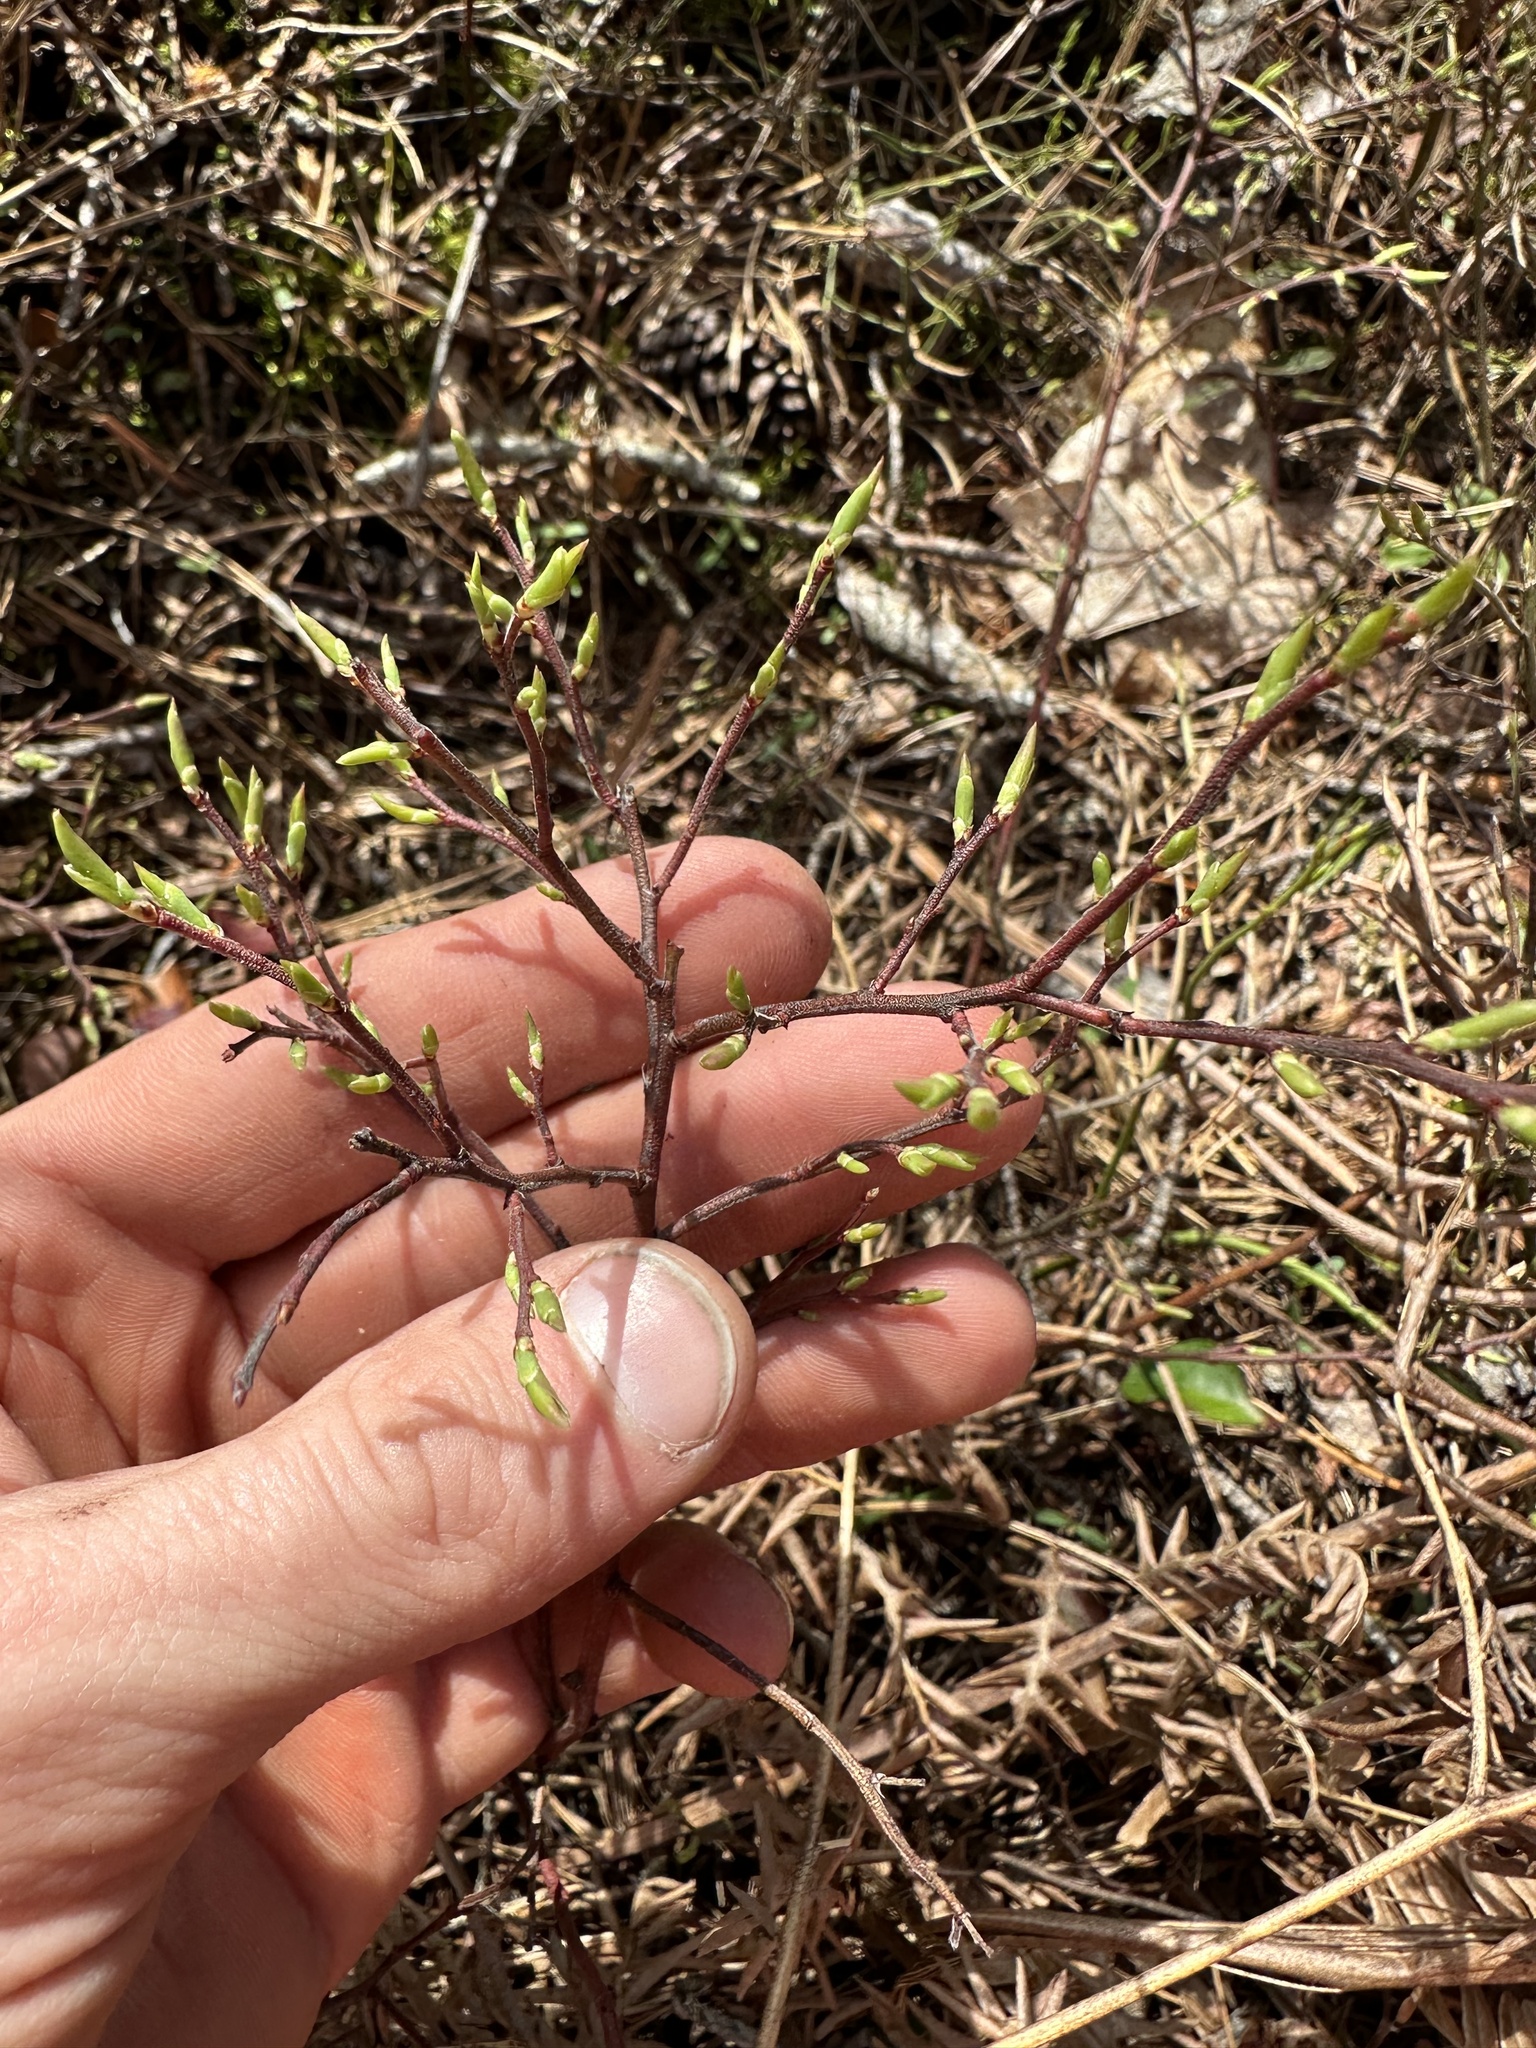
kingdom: Plantae
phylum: Tracheophyta
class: Magnoliopsida
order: Ericales
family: Ericaceae
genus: Vaccinium
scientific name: Vaccinium angustifolium
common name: Early lowbush blueberry
